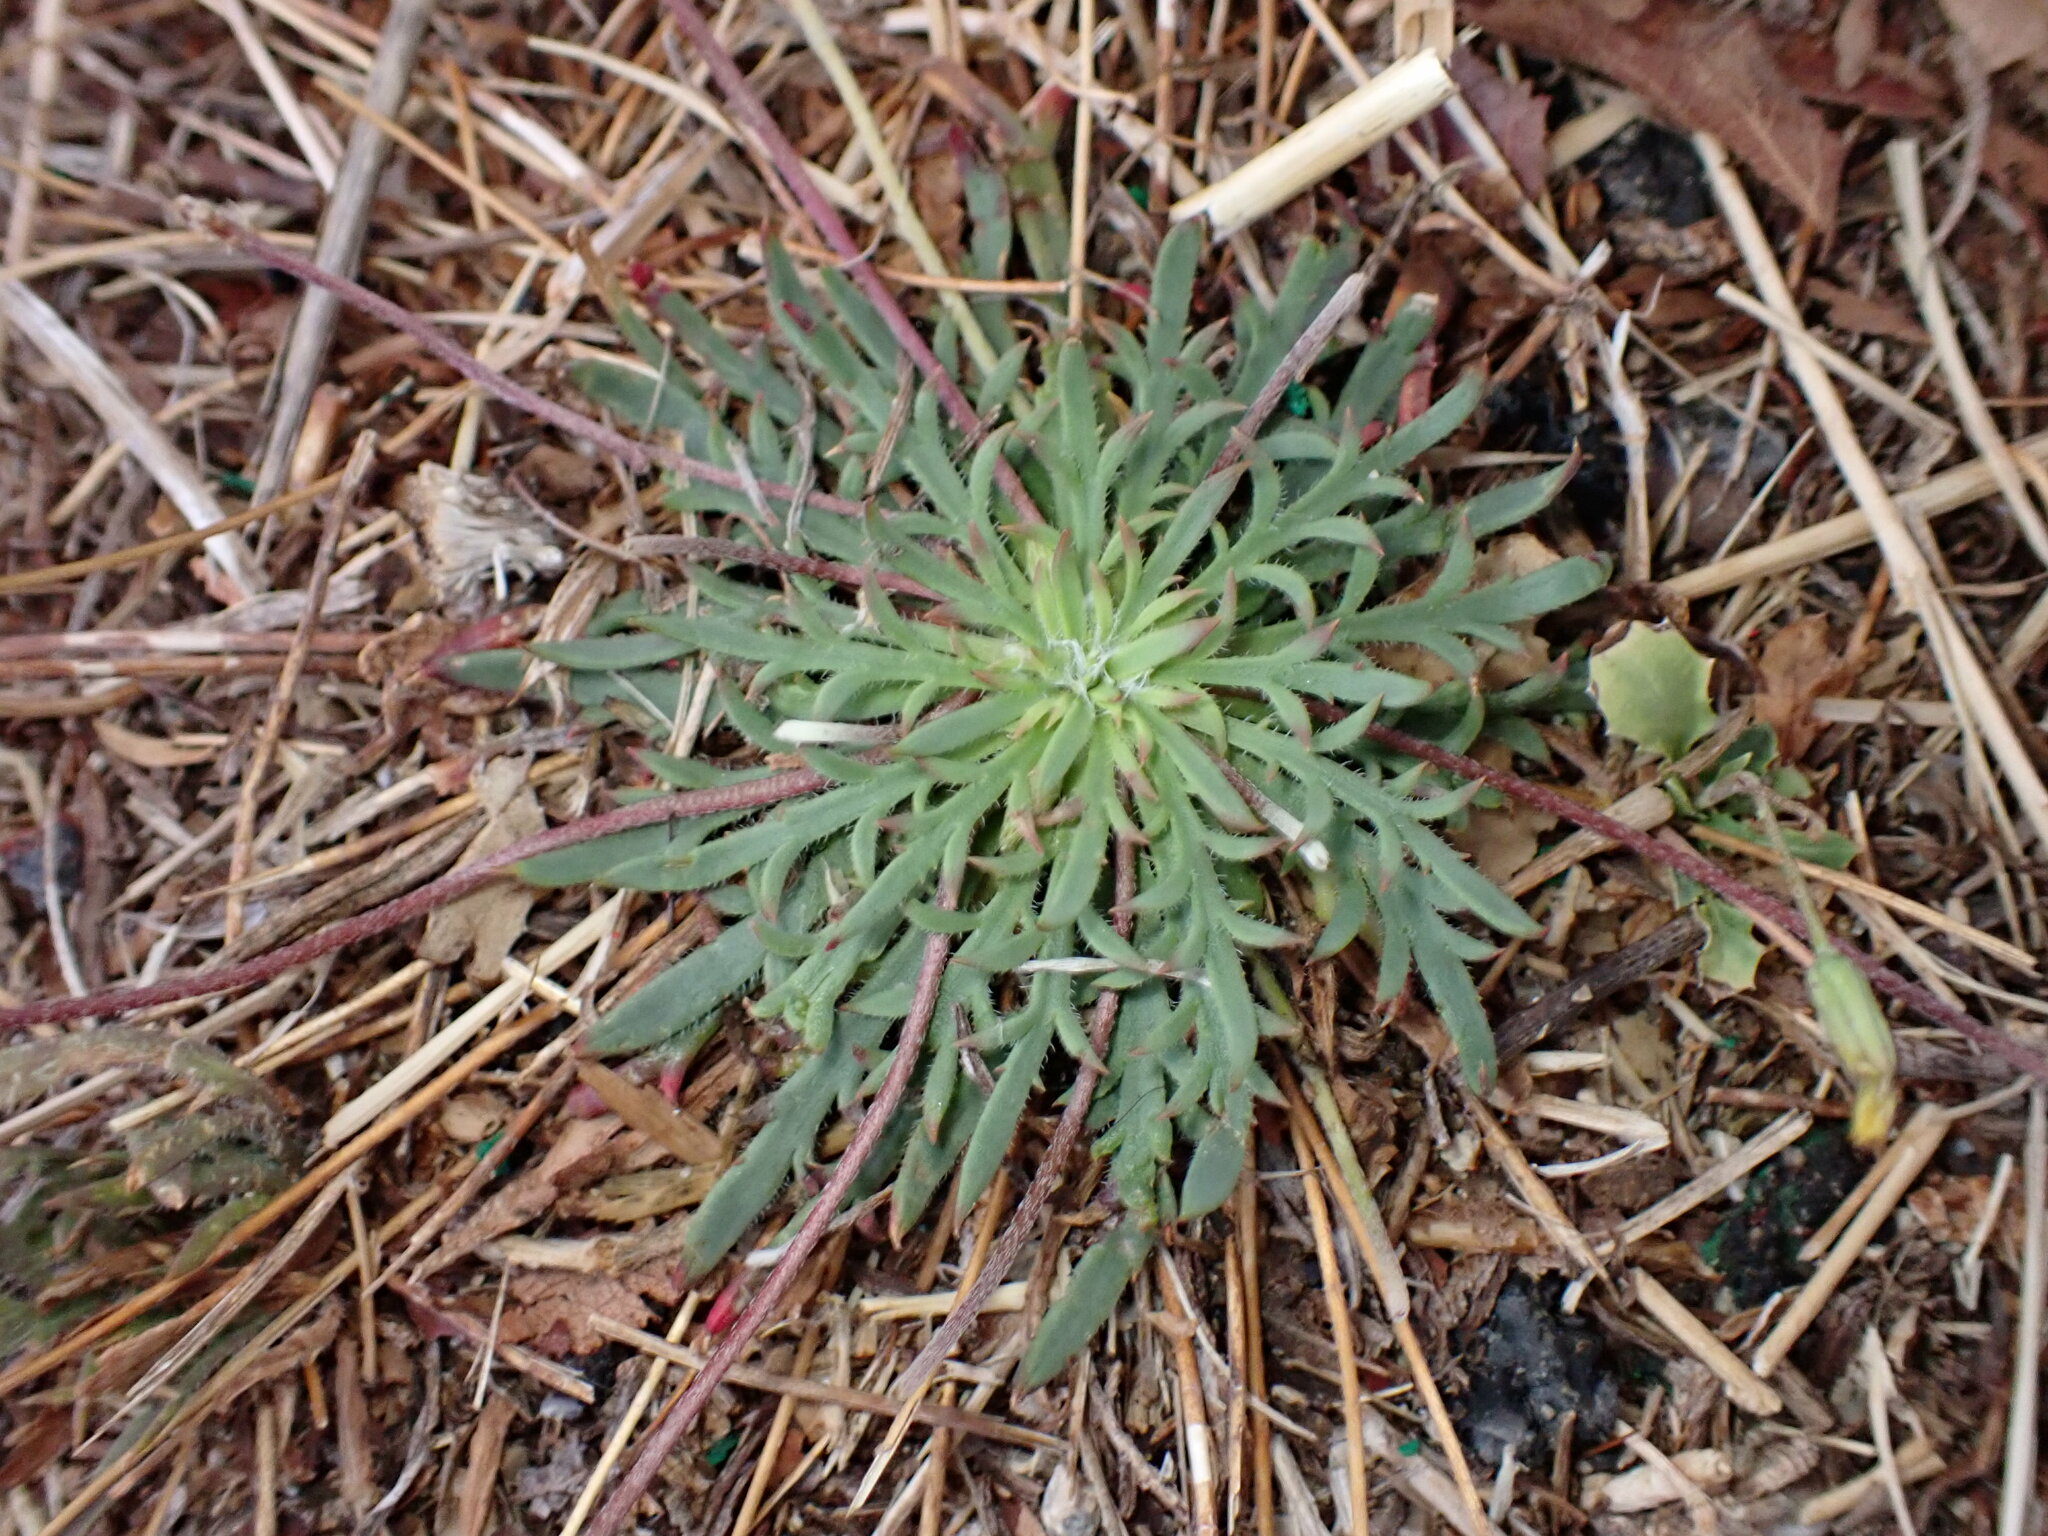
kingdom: Plantae
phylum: Tracheophyta
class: Magnoliopsida
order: Lamiales
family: Plantaginaceae
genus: Plantago
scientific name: Plantago coronopus
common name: Buck's-horn plantain
